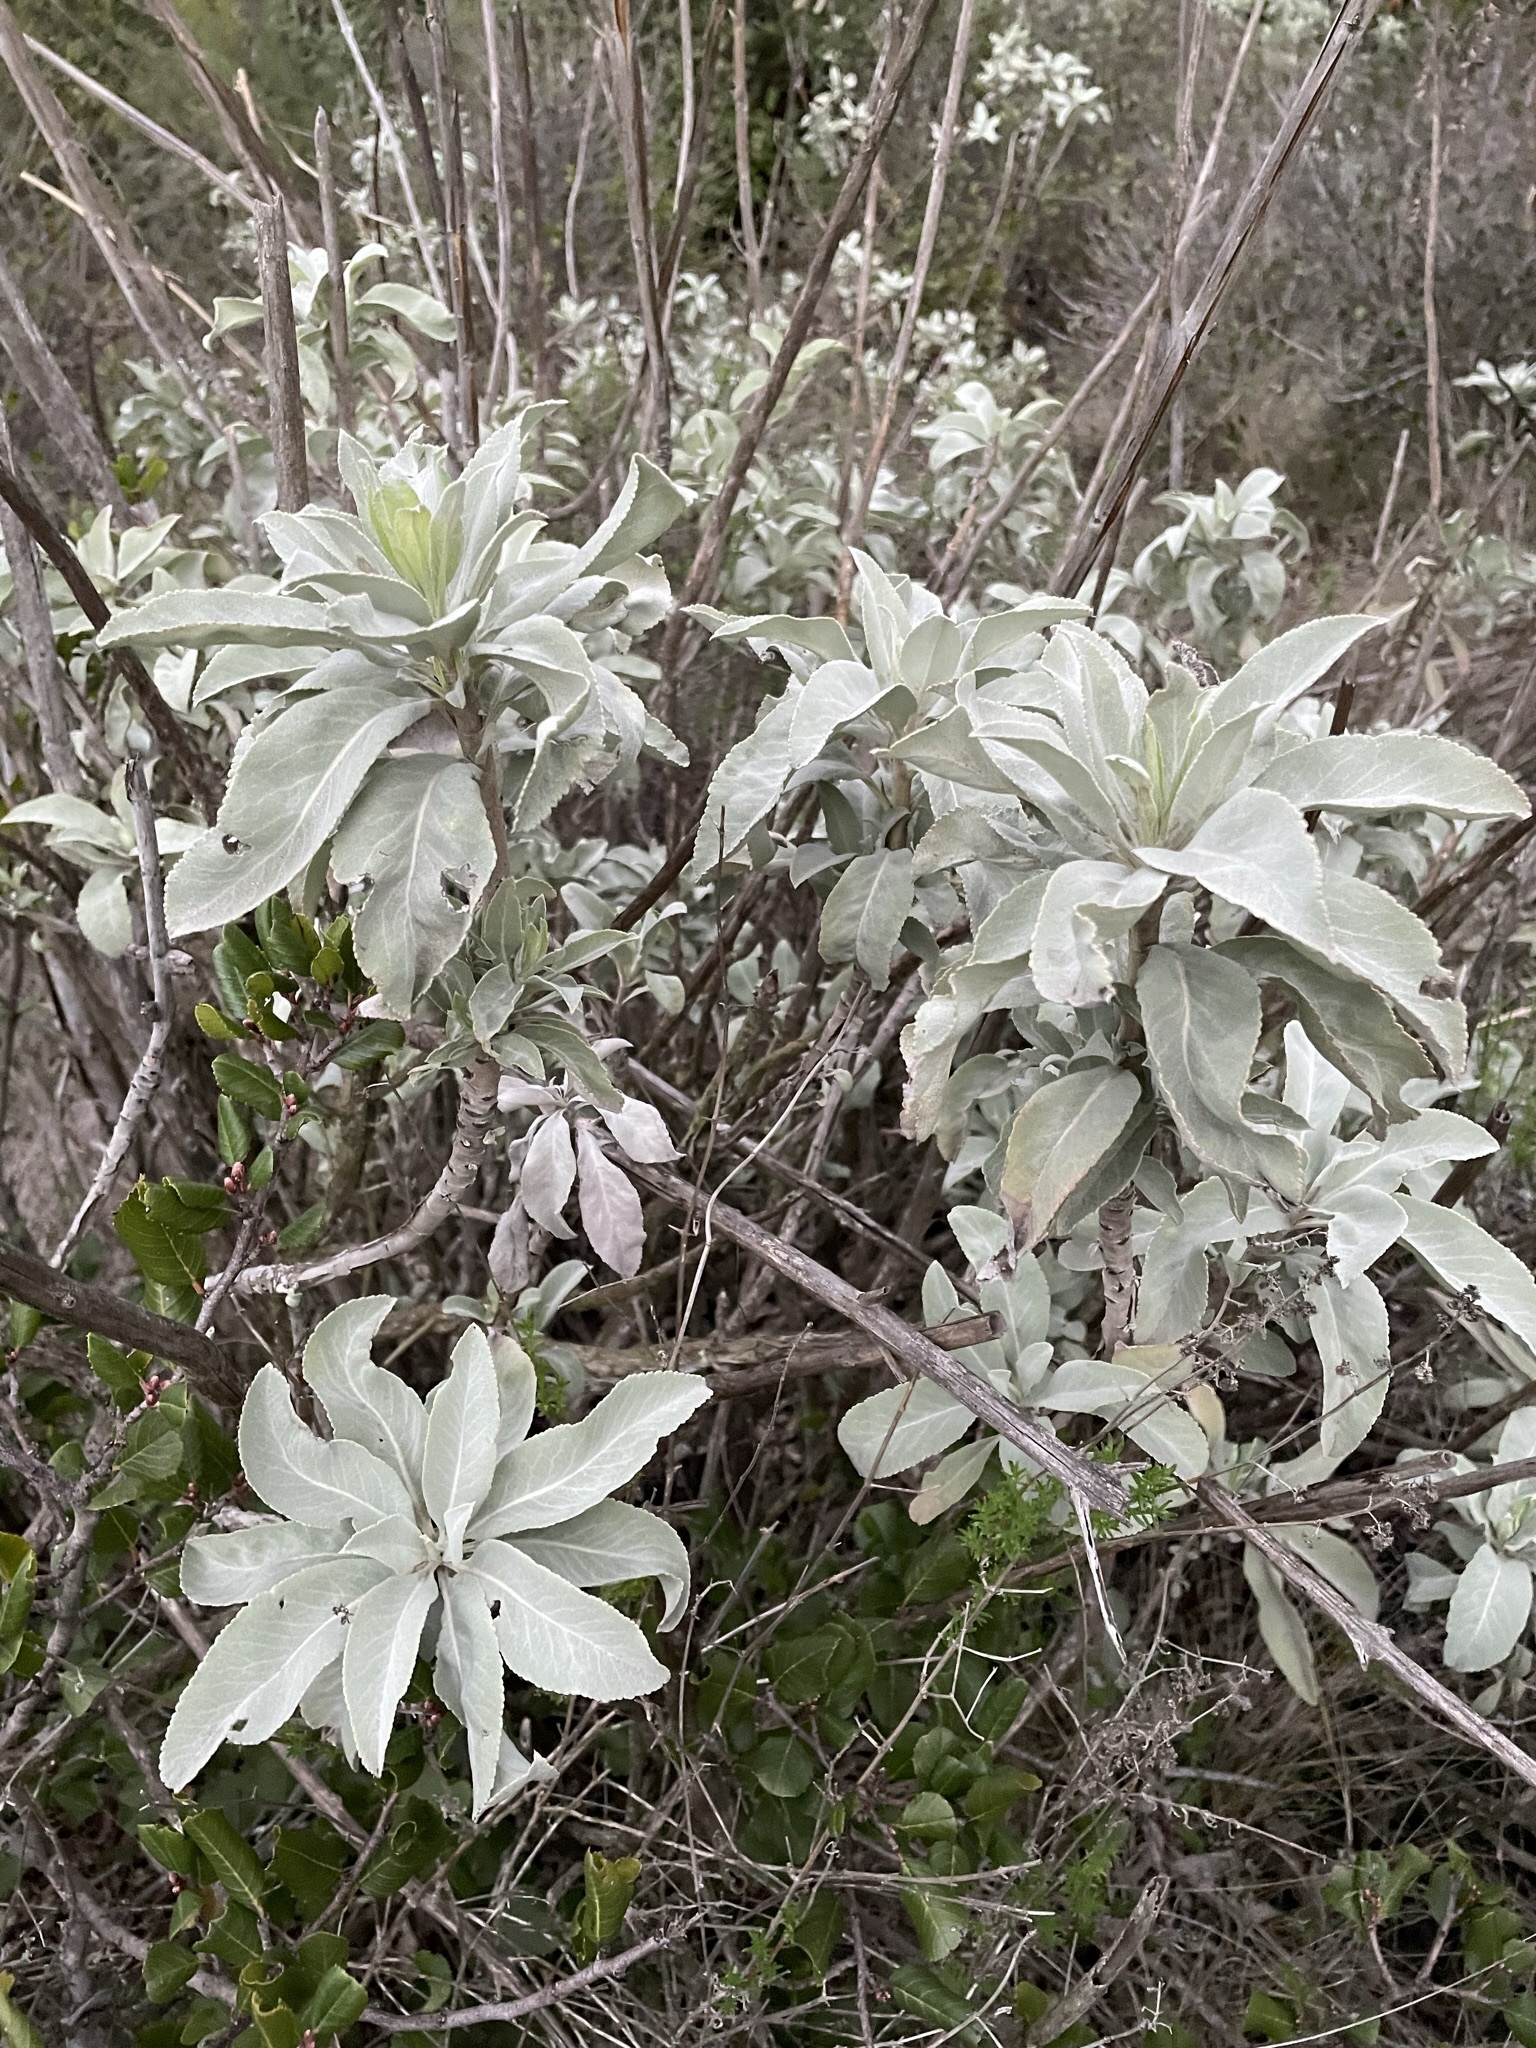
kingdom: Plantae
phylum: Tracheophyta
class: Magnoliopsida
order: Lamiales
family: Lamiaceae
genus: Salvia
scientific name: Salvia apiana
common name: White sage
